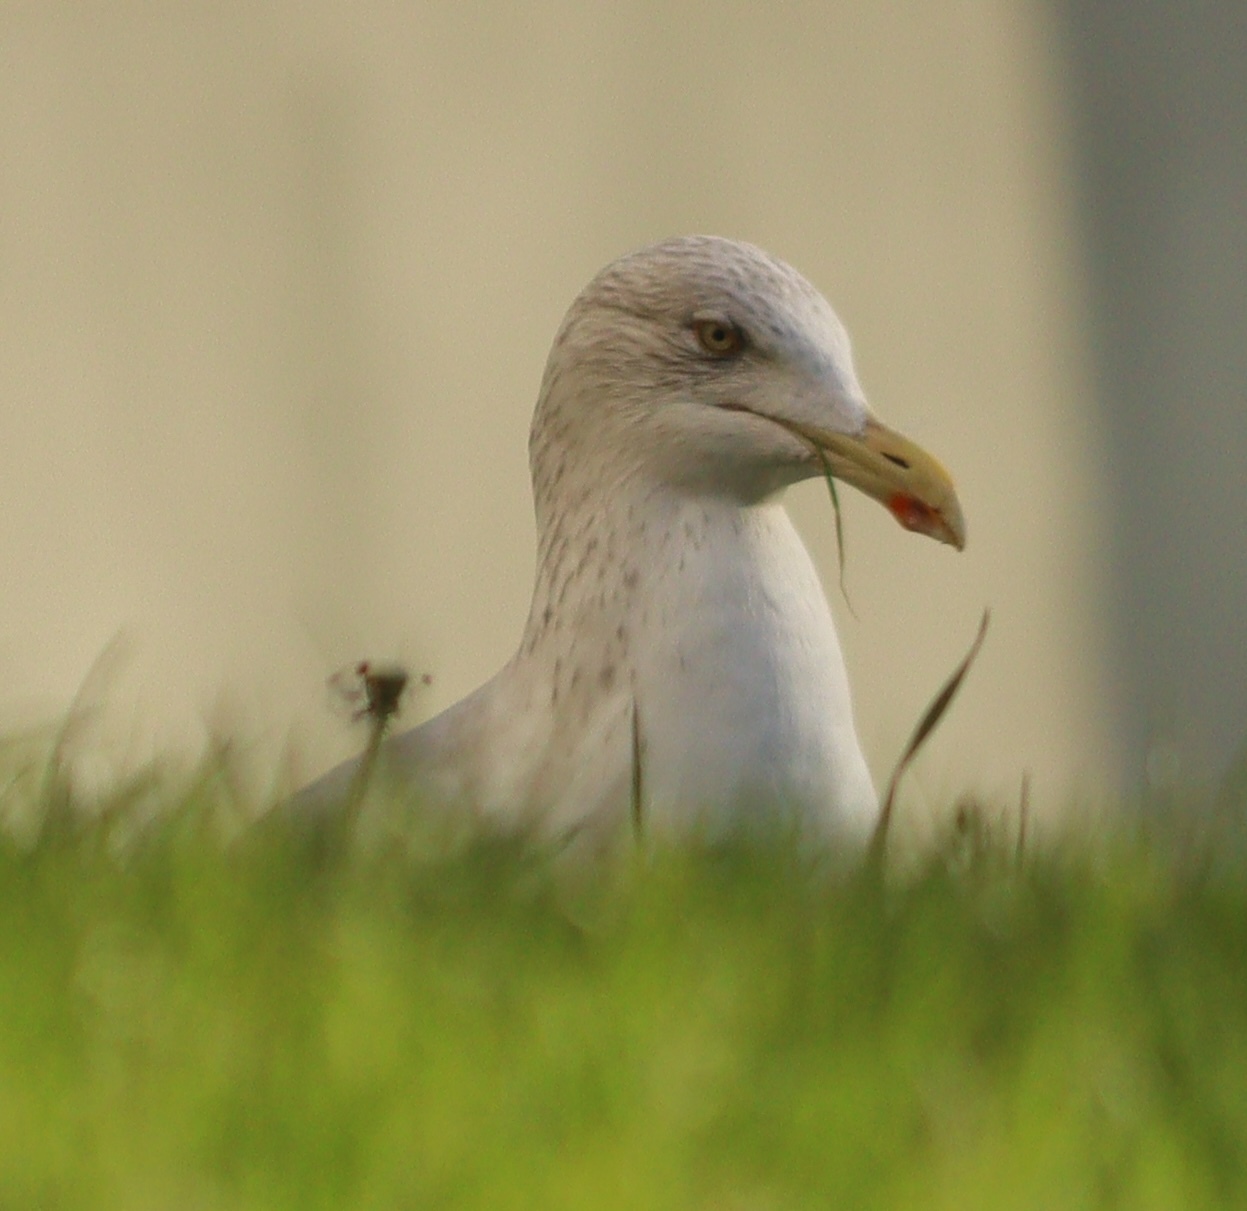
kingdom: Animalia
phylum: Chordata
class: Aves
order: Charadriiformes
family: Laridae
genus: Larus
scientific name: Larus argentatus
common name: Herring gull
